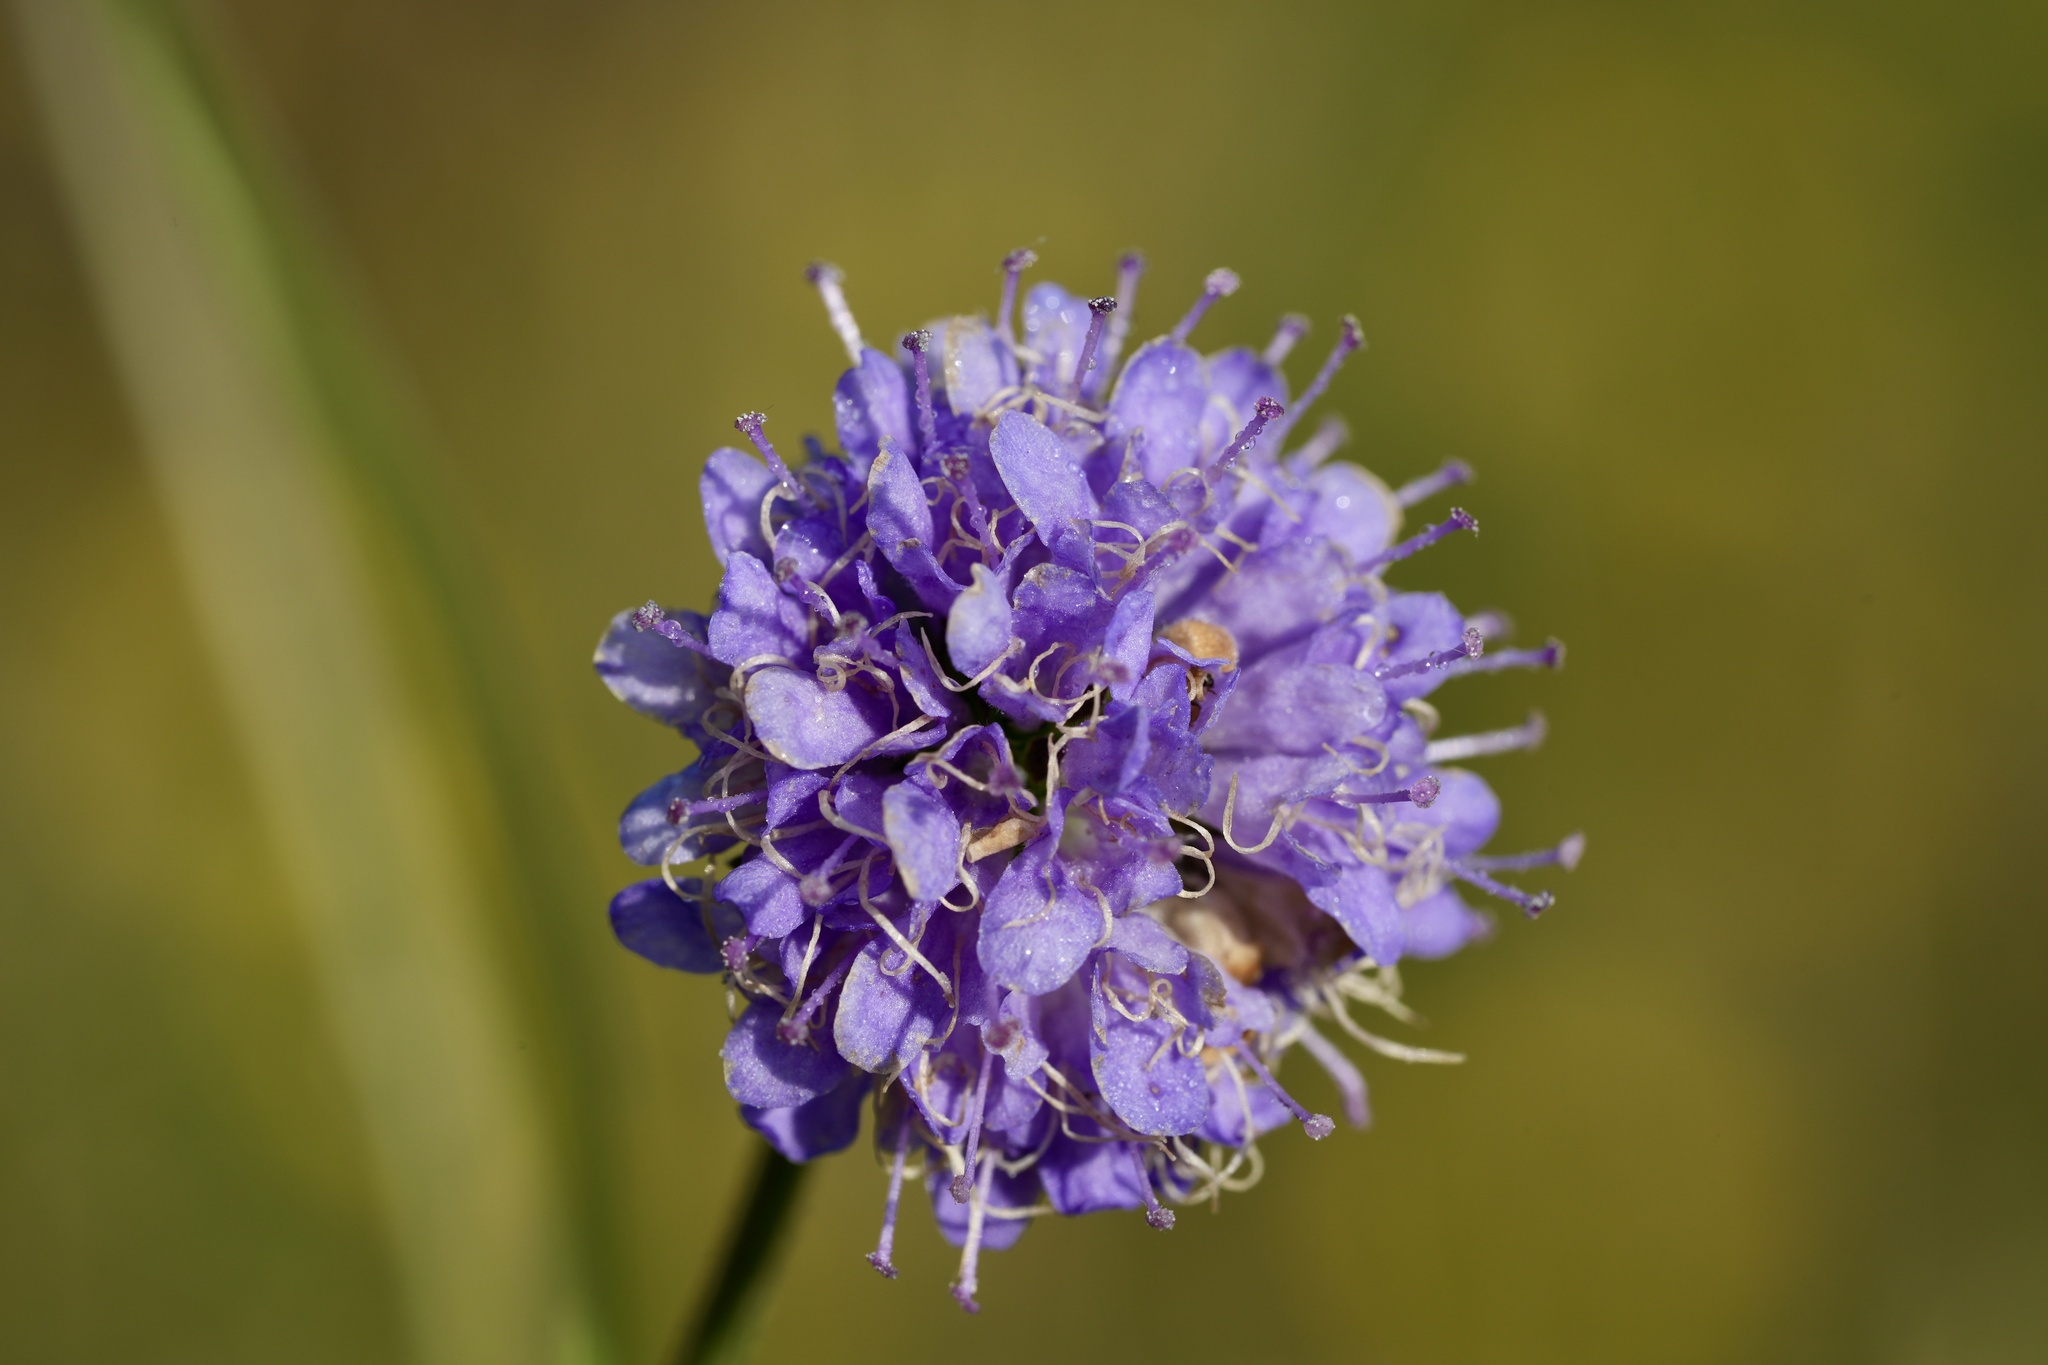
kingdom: Plantae
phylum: Tracheophyta
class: Magnoliopsida
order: Dipsacales
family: Caprifoliaceae
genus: Succisa
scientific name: Succisa pratensis
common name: Devil's-bit
